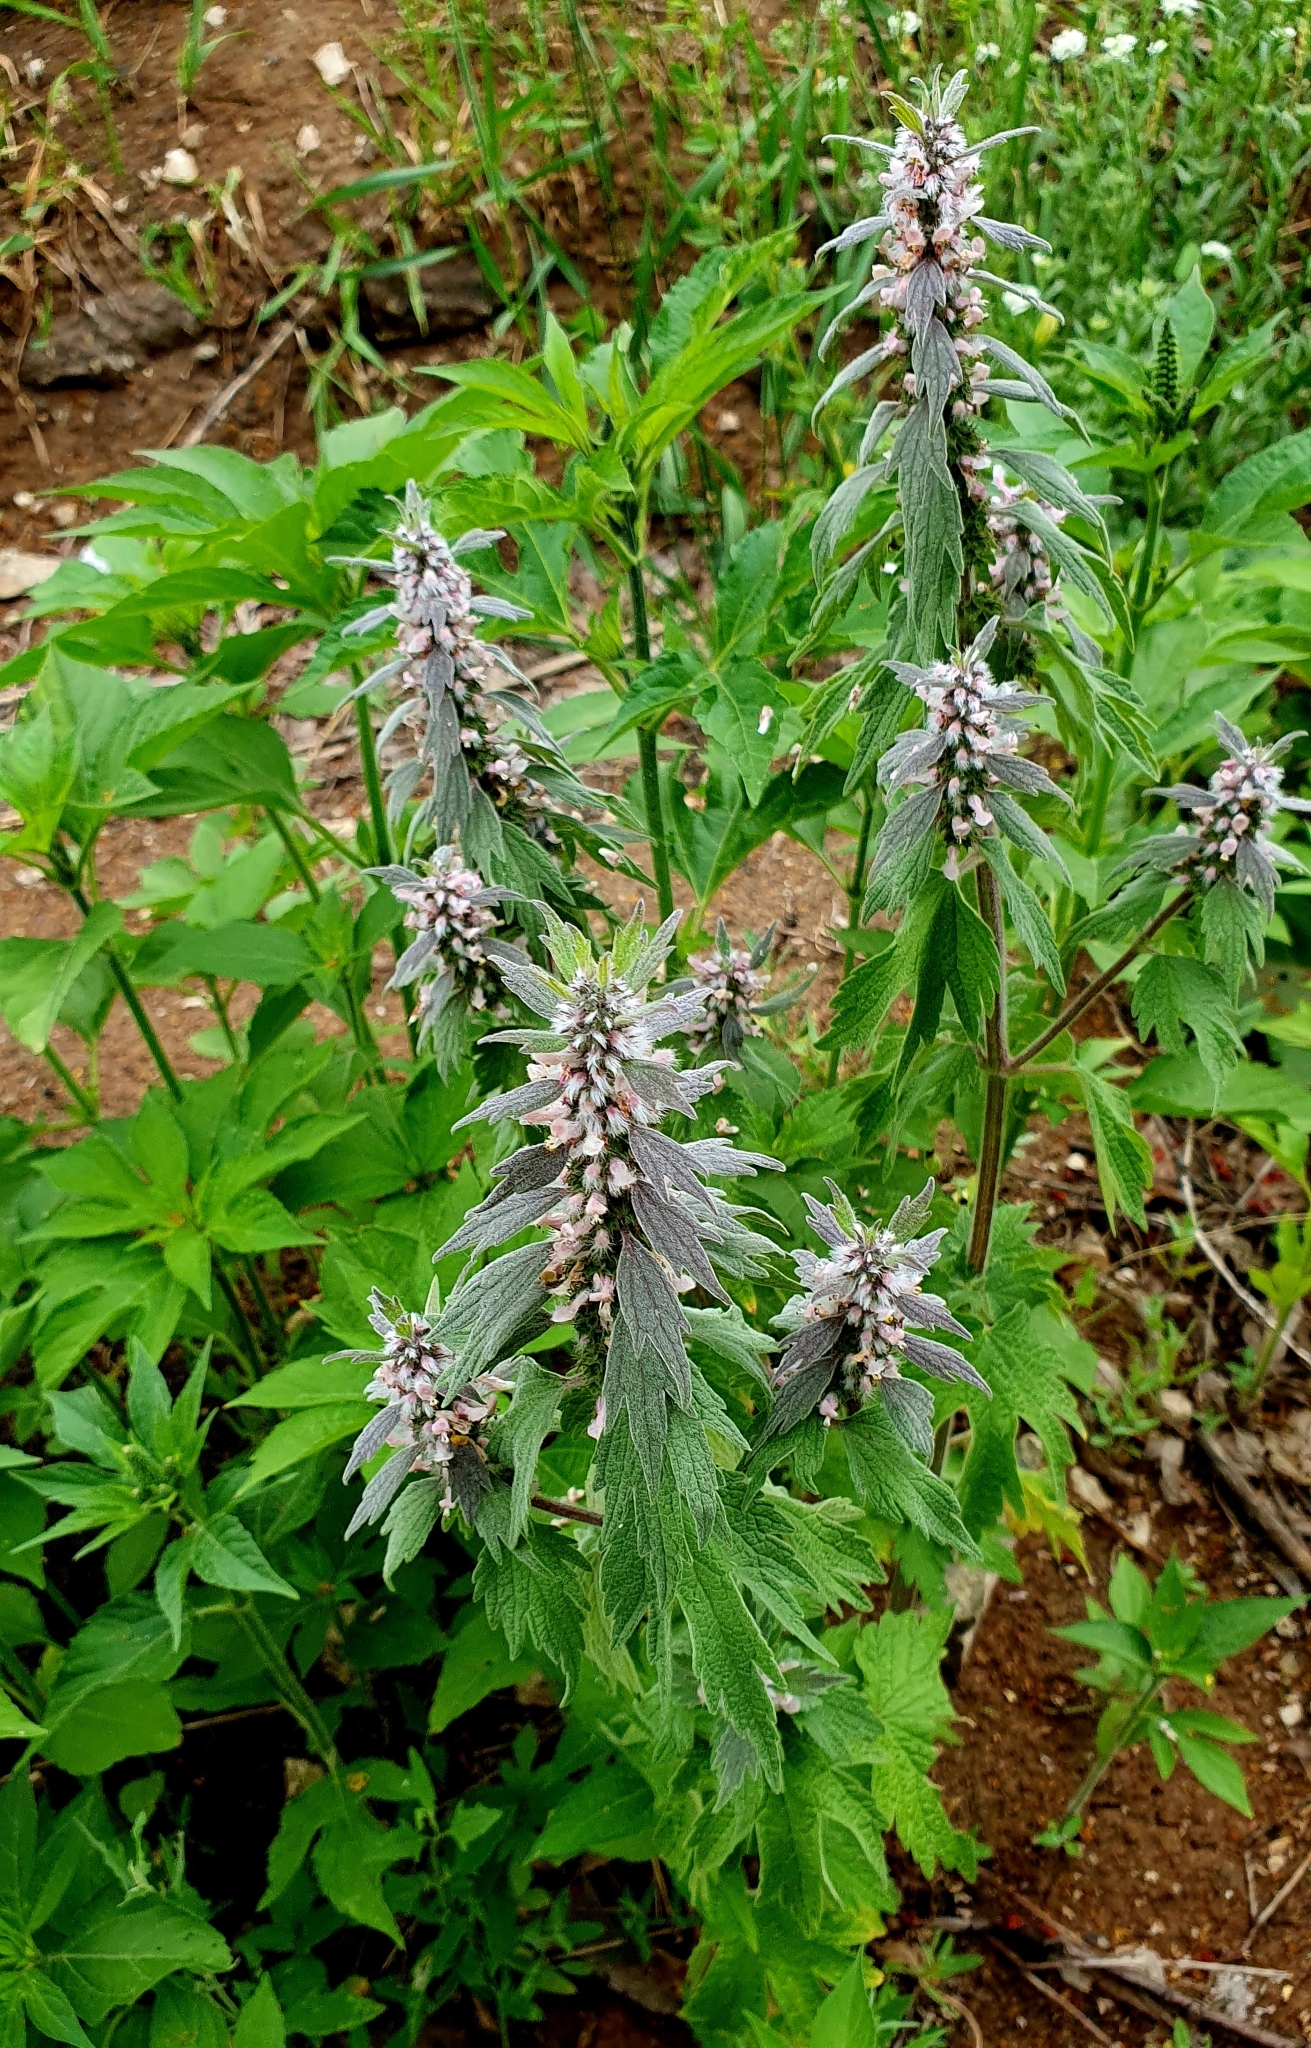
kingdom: Plantae
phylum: Tracheophyta
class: Magnoliopsida
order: Lamiales
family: Lamiaceae
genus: Leonurus
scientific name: Leonurus quinquelobatus
